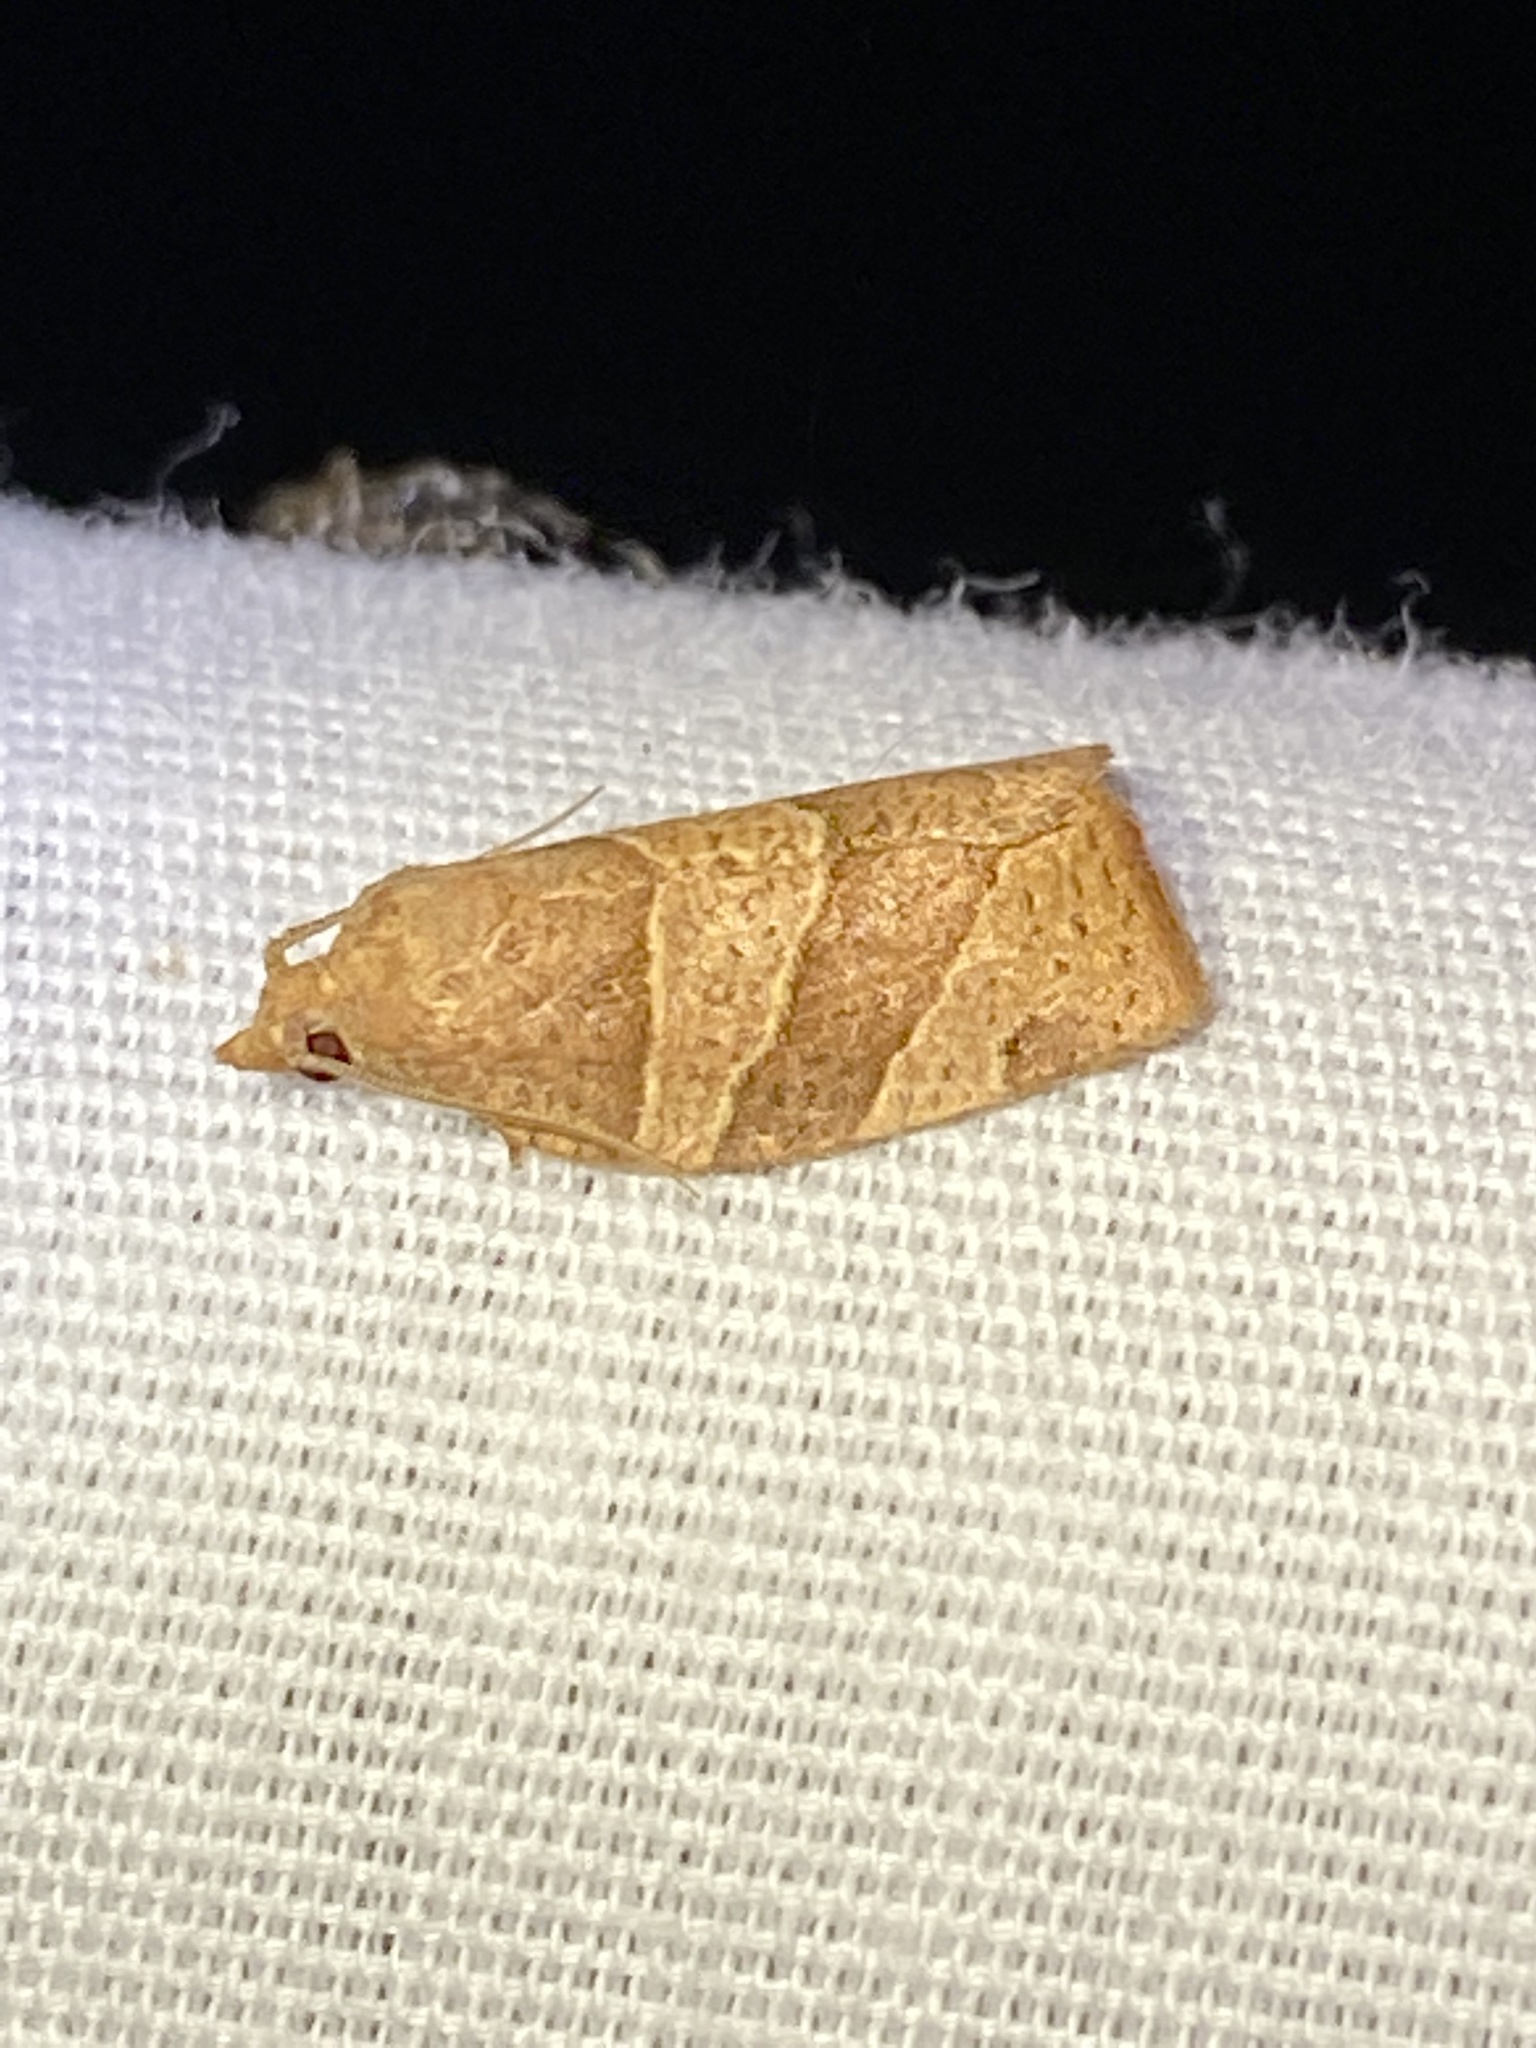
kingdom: Animalia
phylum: Arthropoda
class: Insecta
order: Lepidoptera
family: Tortricidae
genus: Pandemis
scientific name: Pandemis limitata
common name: Three-lined leafroller moth
